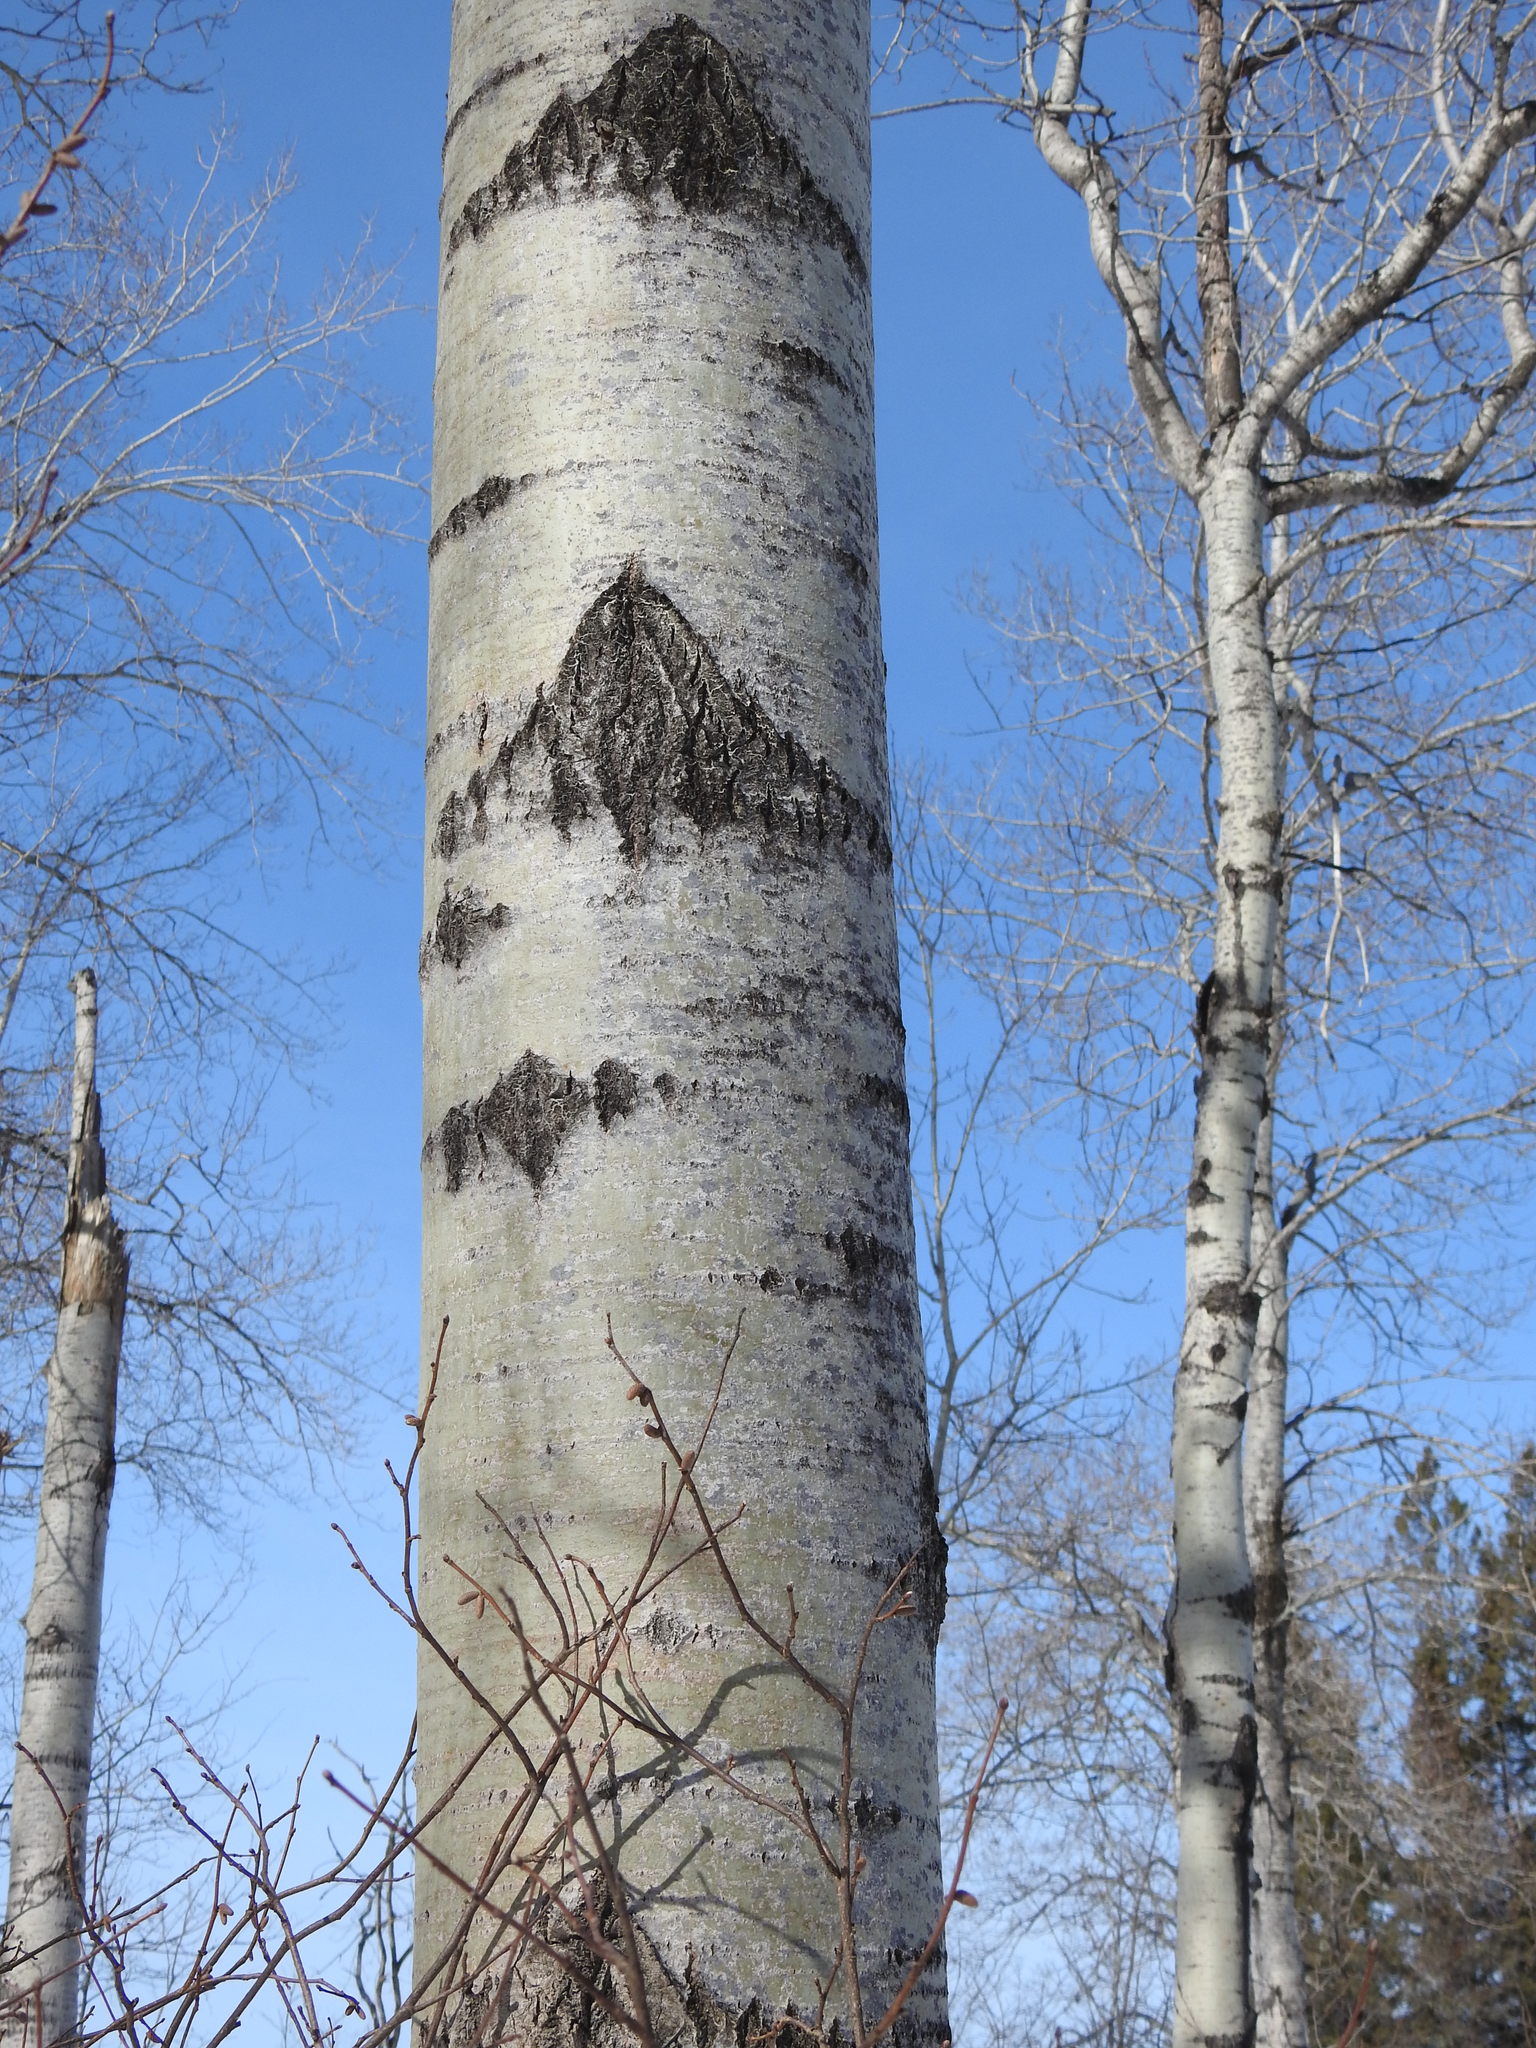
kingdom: Plantae
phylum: Tracheophyta
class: Magnoliopsida
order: Malpighiales
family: Salicaceae
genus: Populus
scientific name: Populus tremuloides
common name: Quaking aspen
